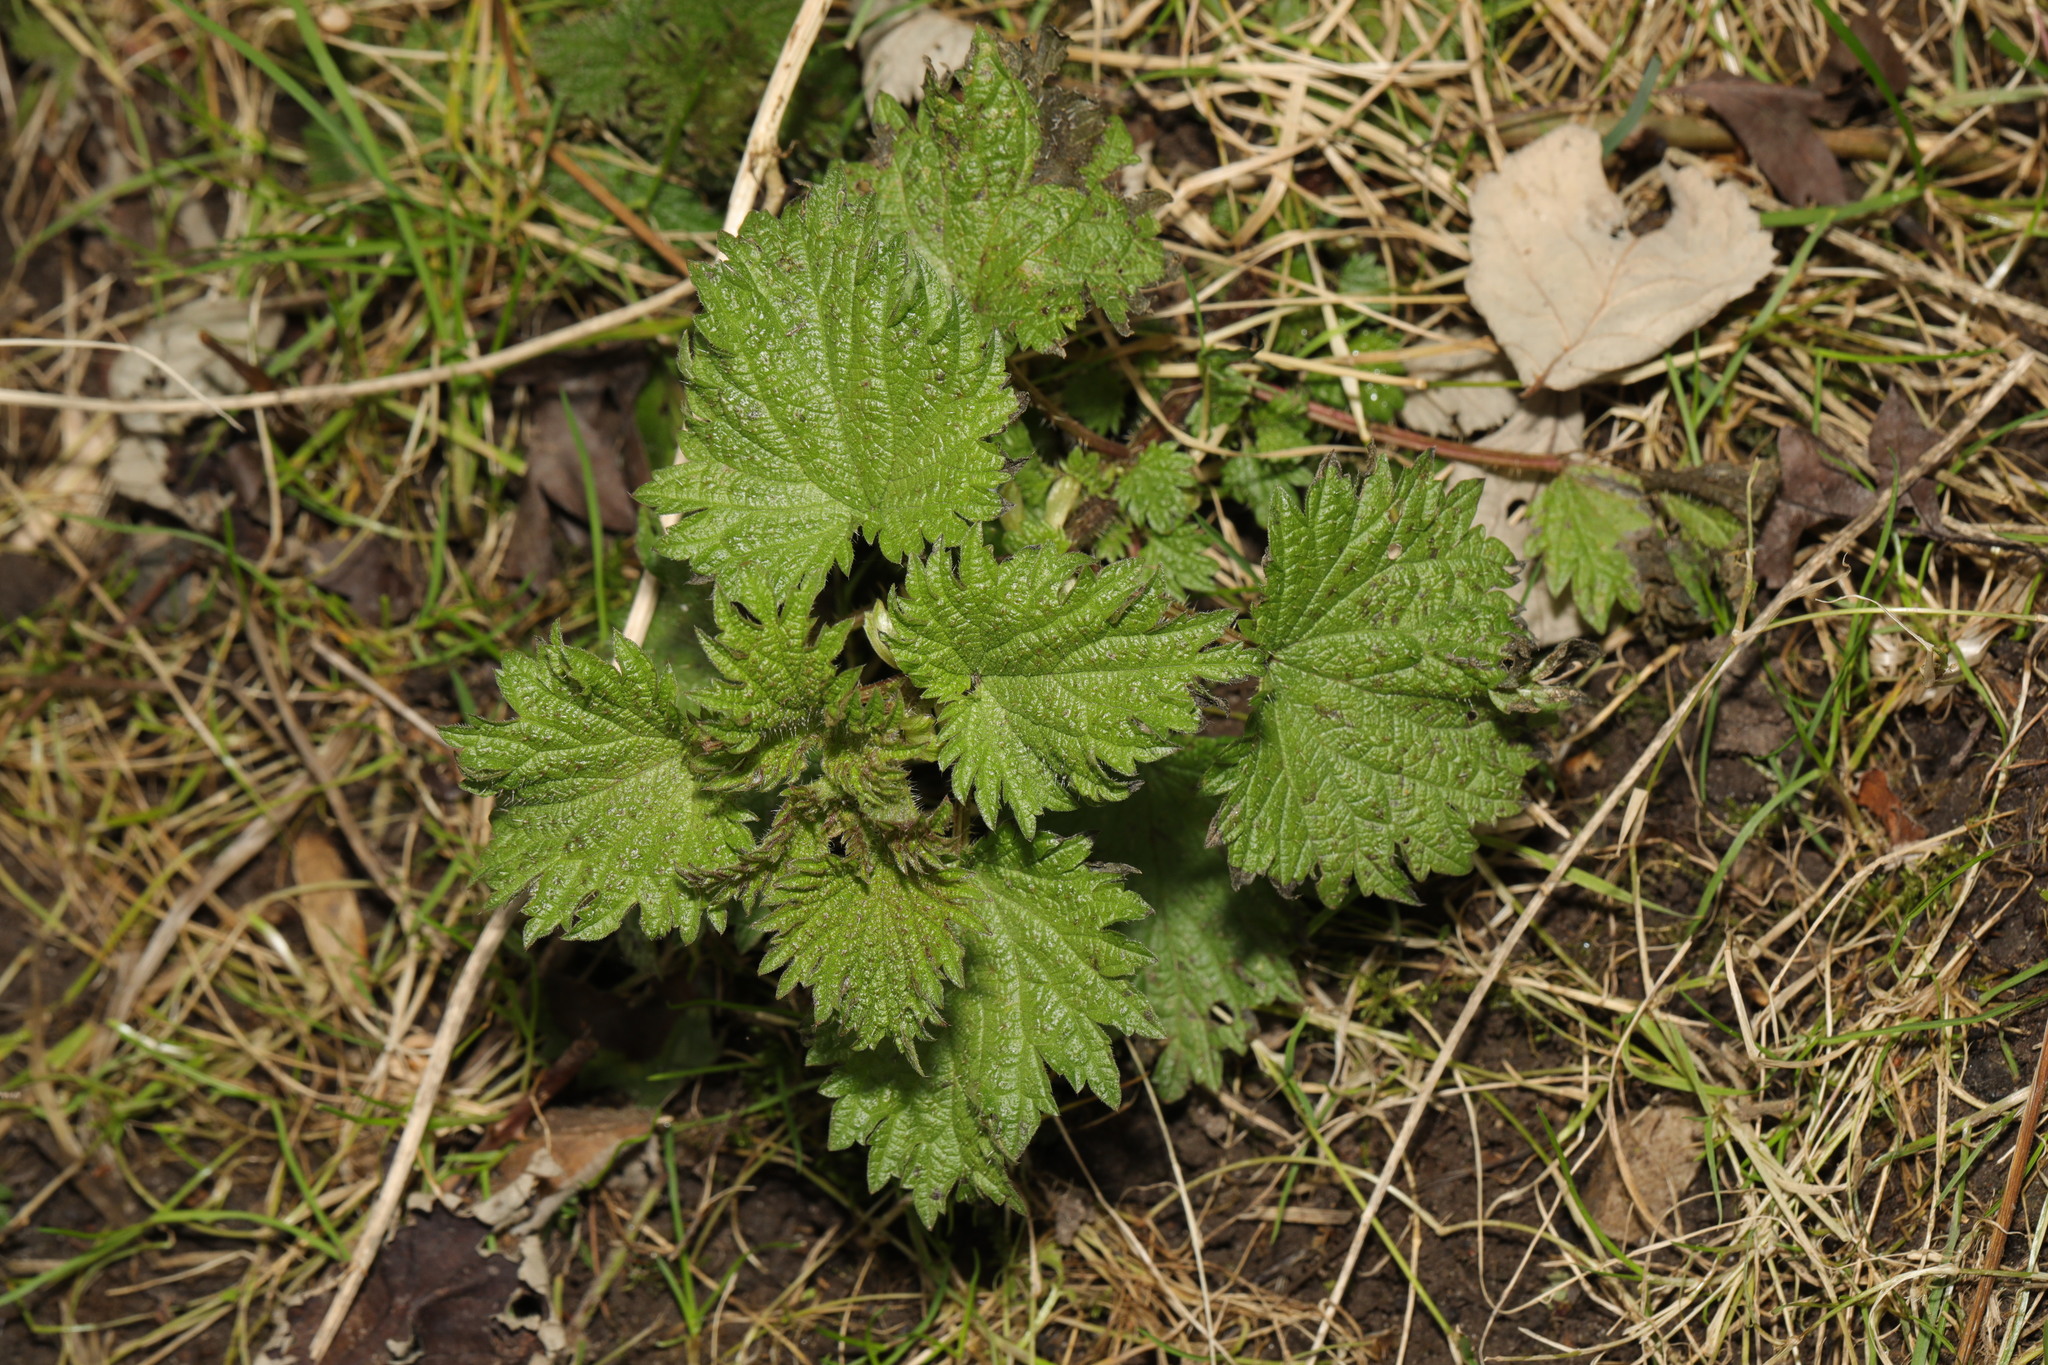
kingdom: Plantae
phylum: Tracheophyta
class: Magnoliopsida
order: Rosales
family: Urticaceae
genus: Urtica
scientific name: Urtica dioica
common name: Common nettle
